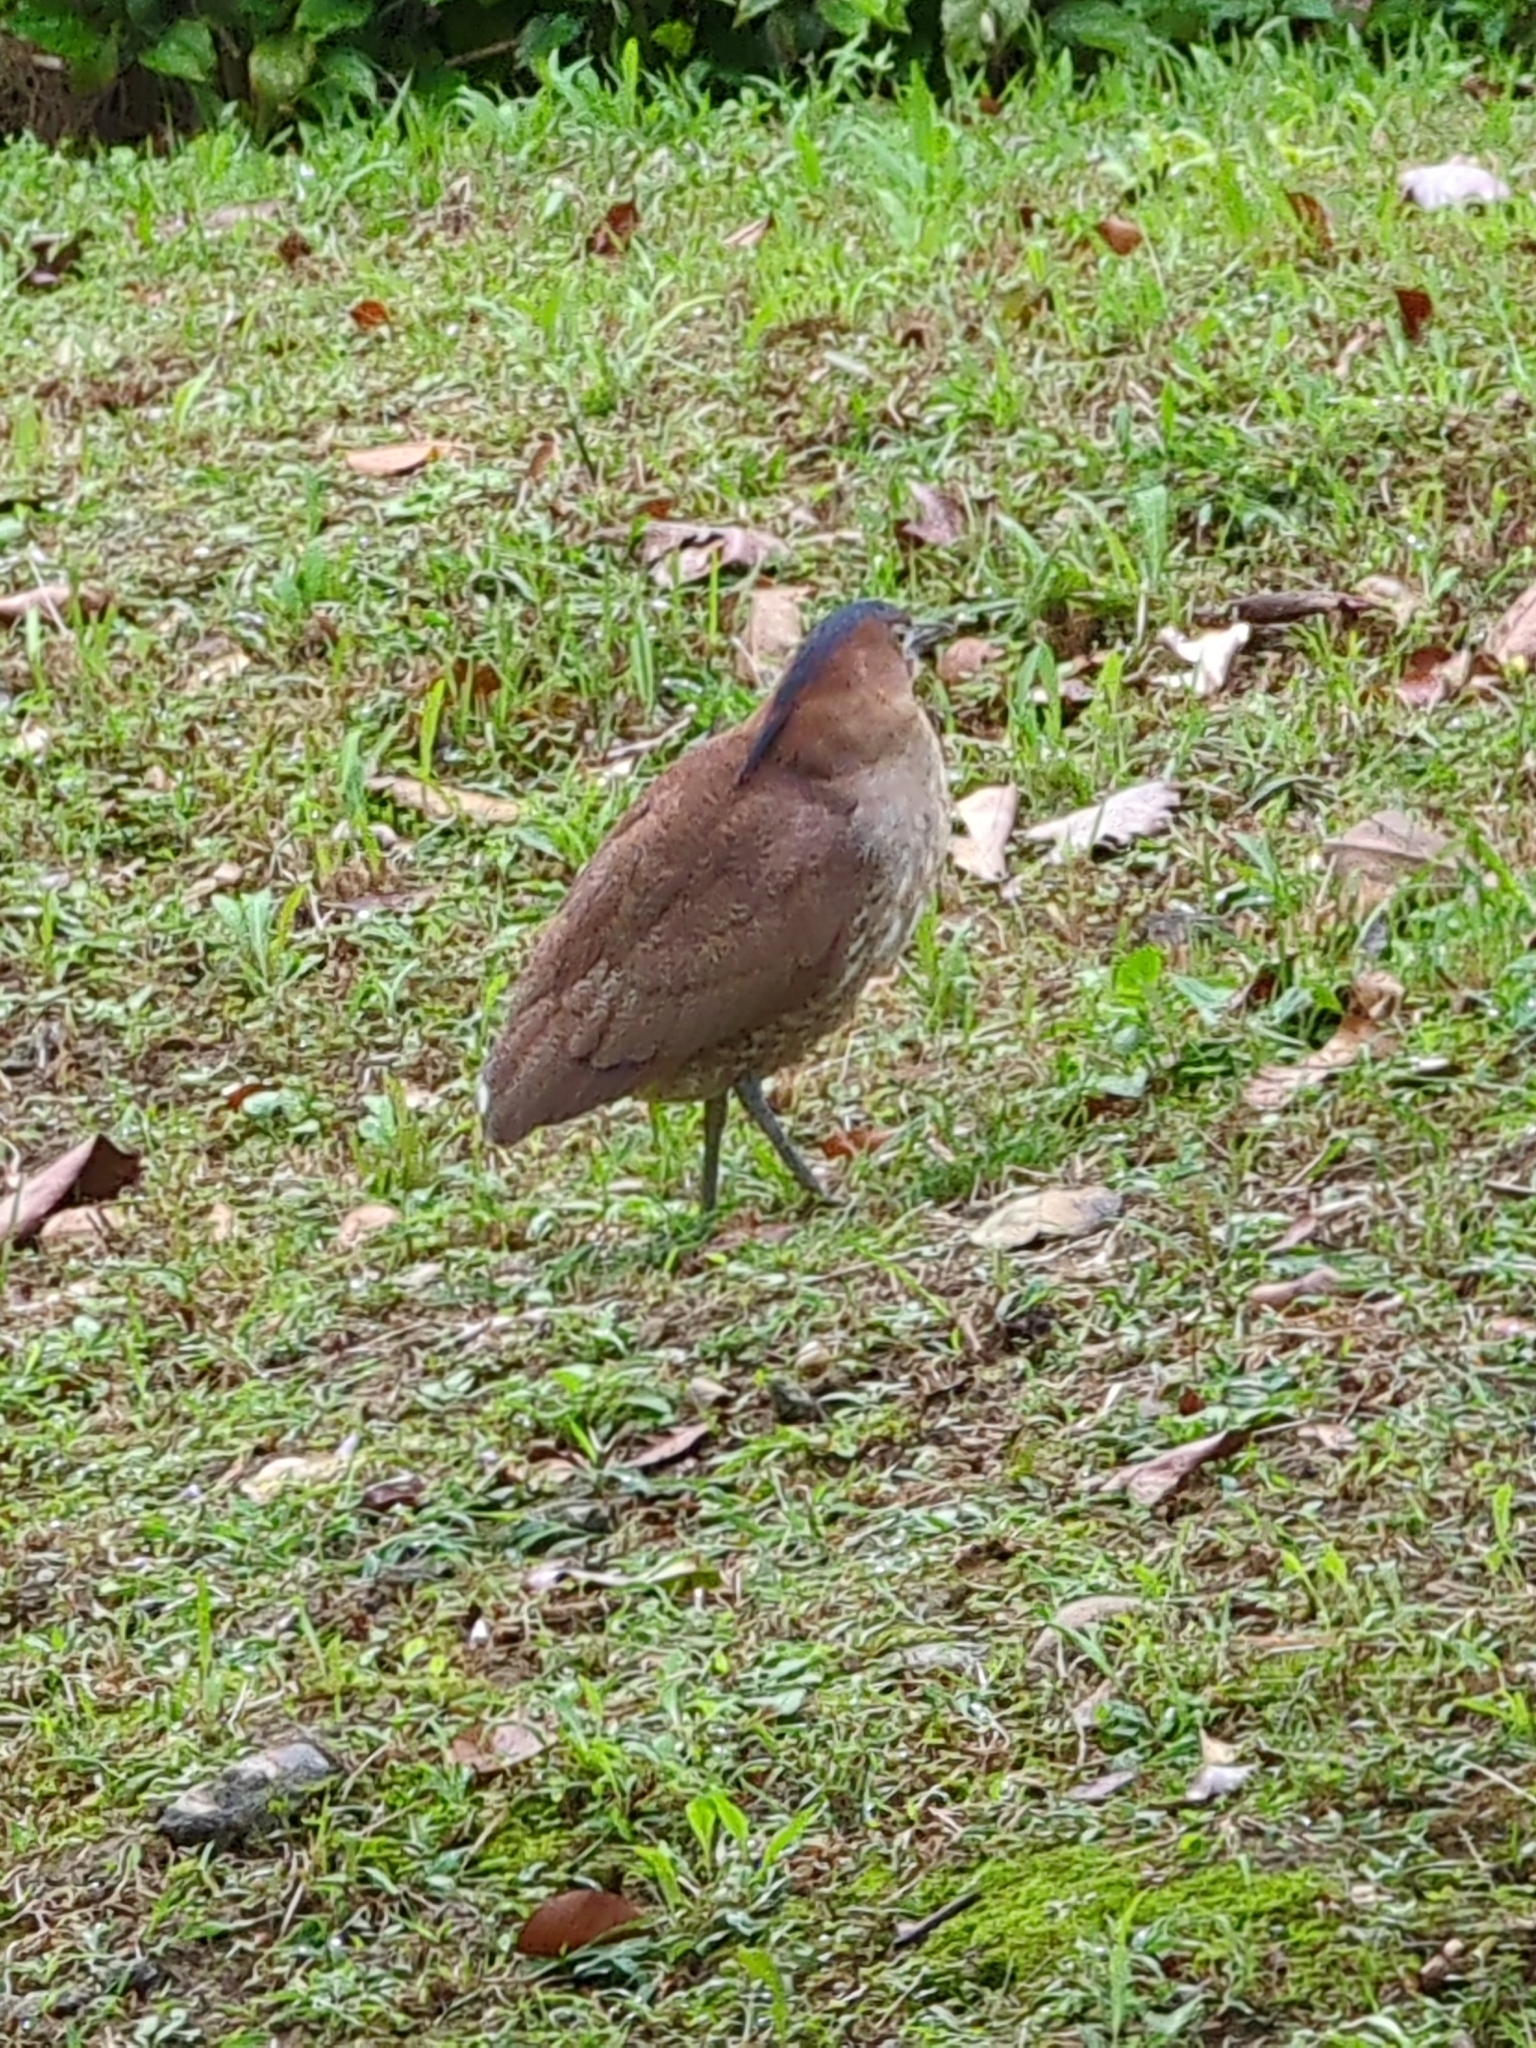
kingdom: Animalia
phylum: Chordata
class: Aves
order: Pelecaniformes
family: Ardeidae
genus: Gorsachius
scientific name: Gorsachius melanolophus
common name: Malayan night heron
